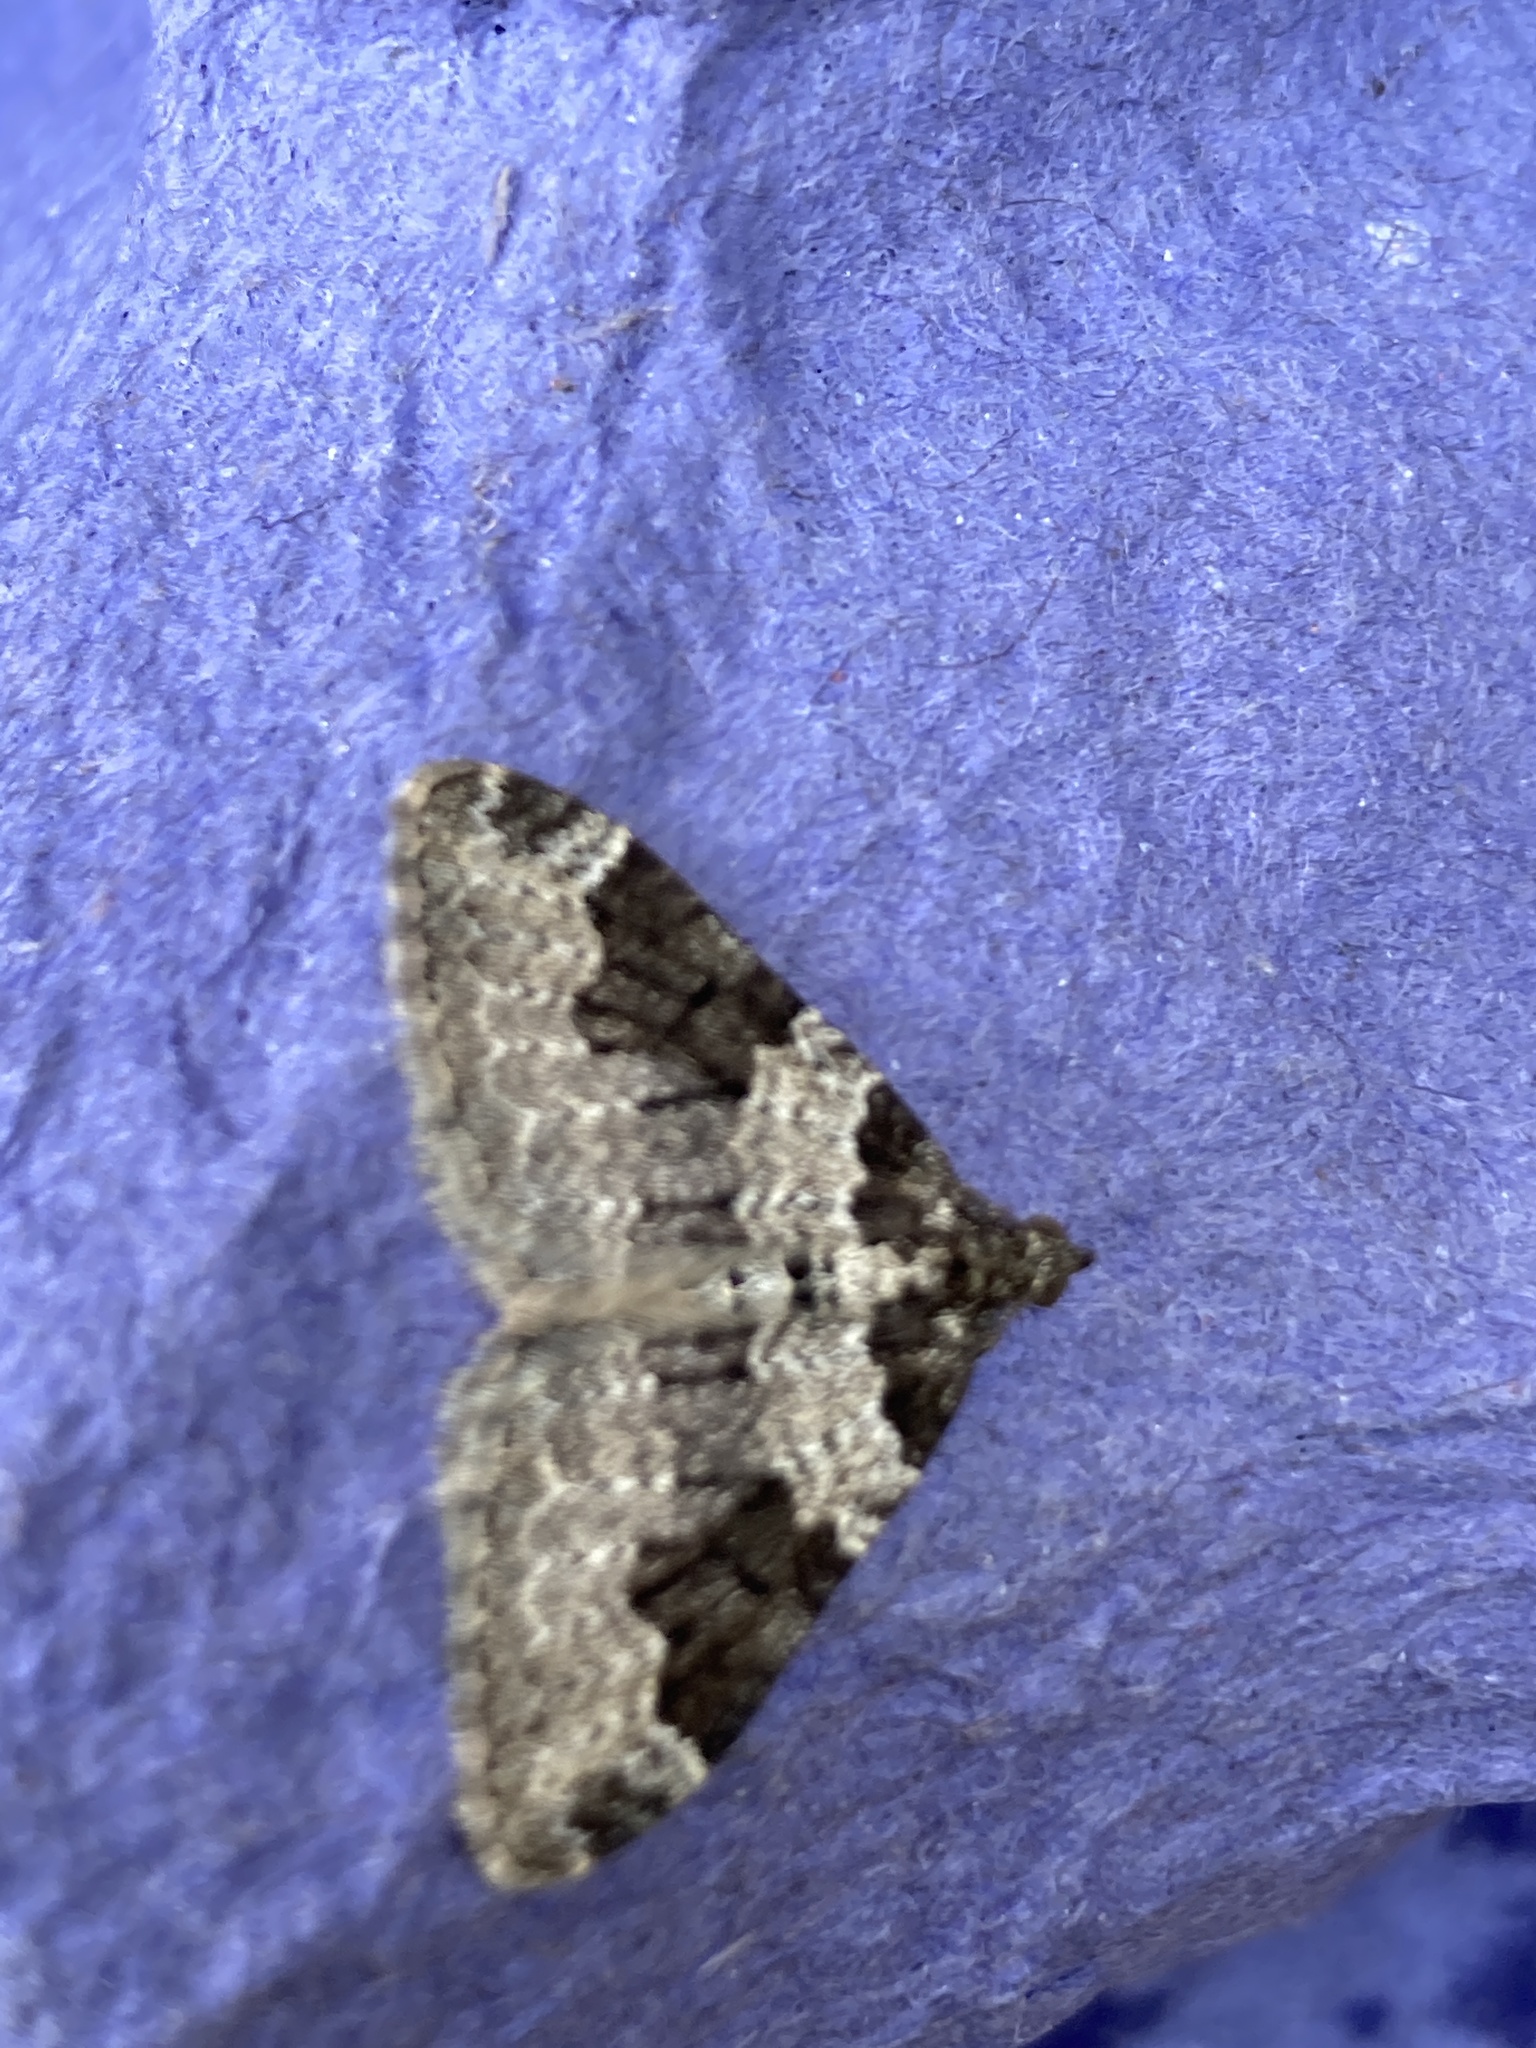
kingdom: Animalia
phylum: Arthropoda
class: Insecta
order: Lepidoptera
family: Geometridae
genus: Xanthorhoe
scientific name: Xanthorhoe fluctuata
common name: Garden carpet
